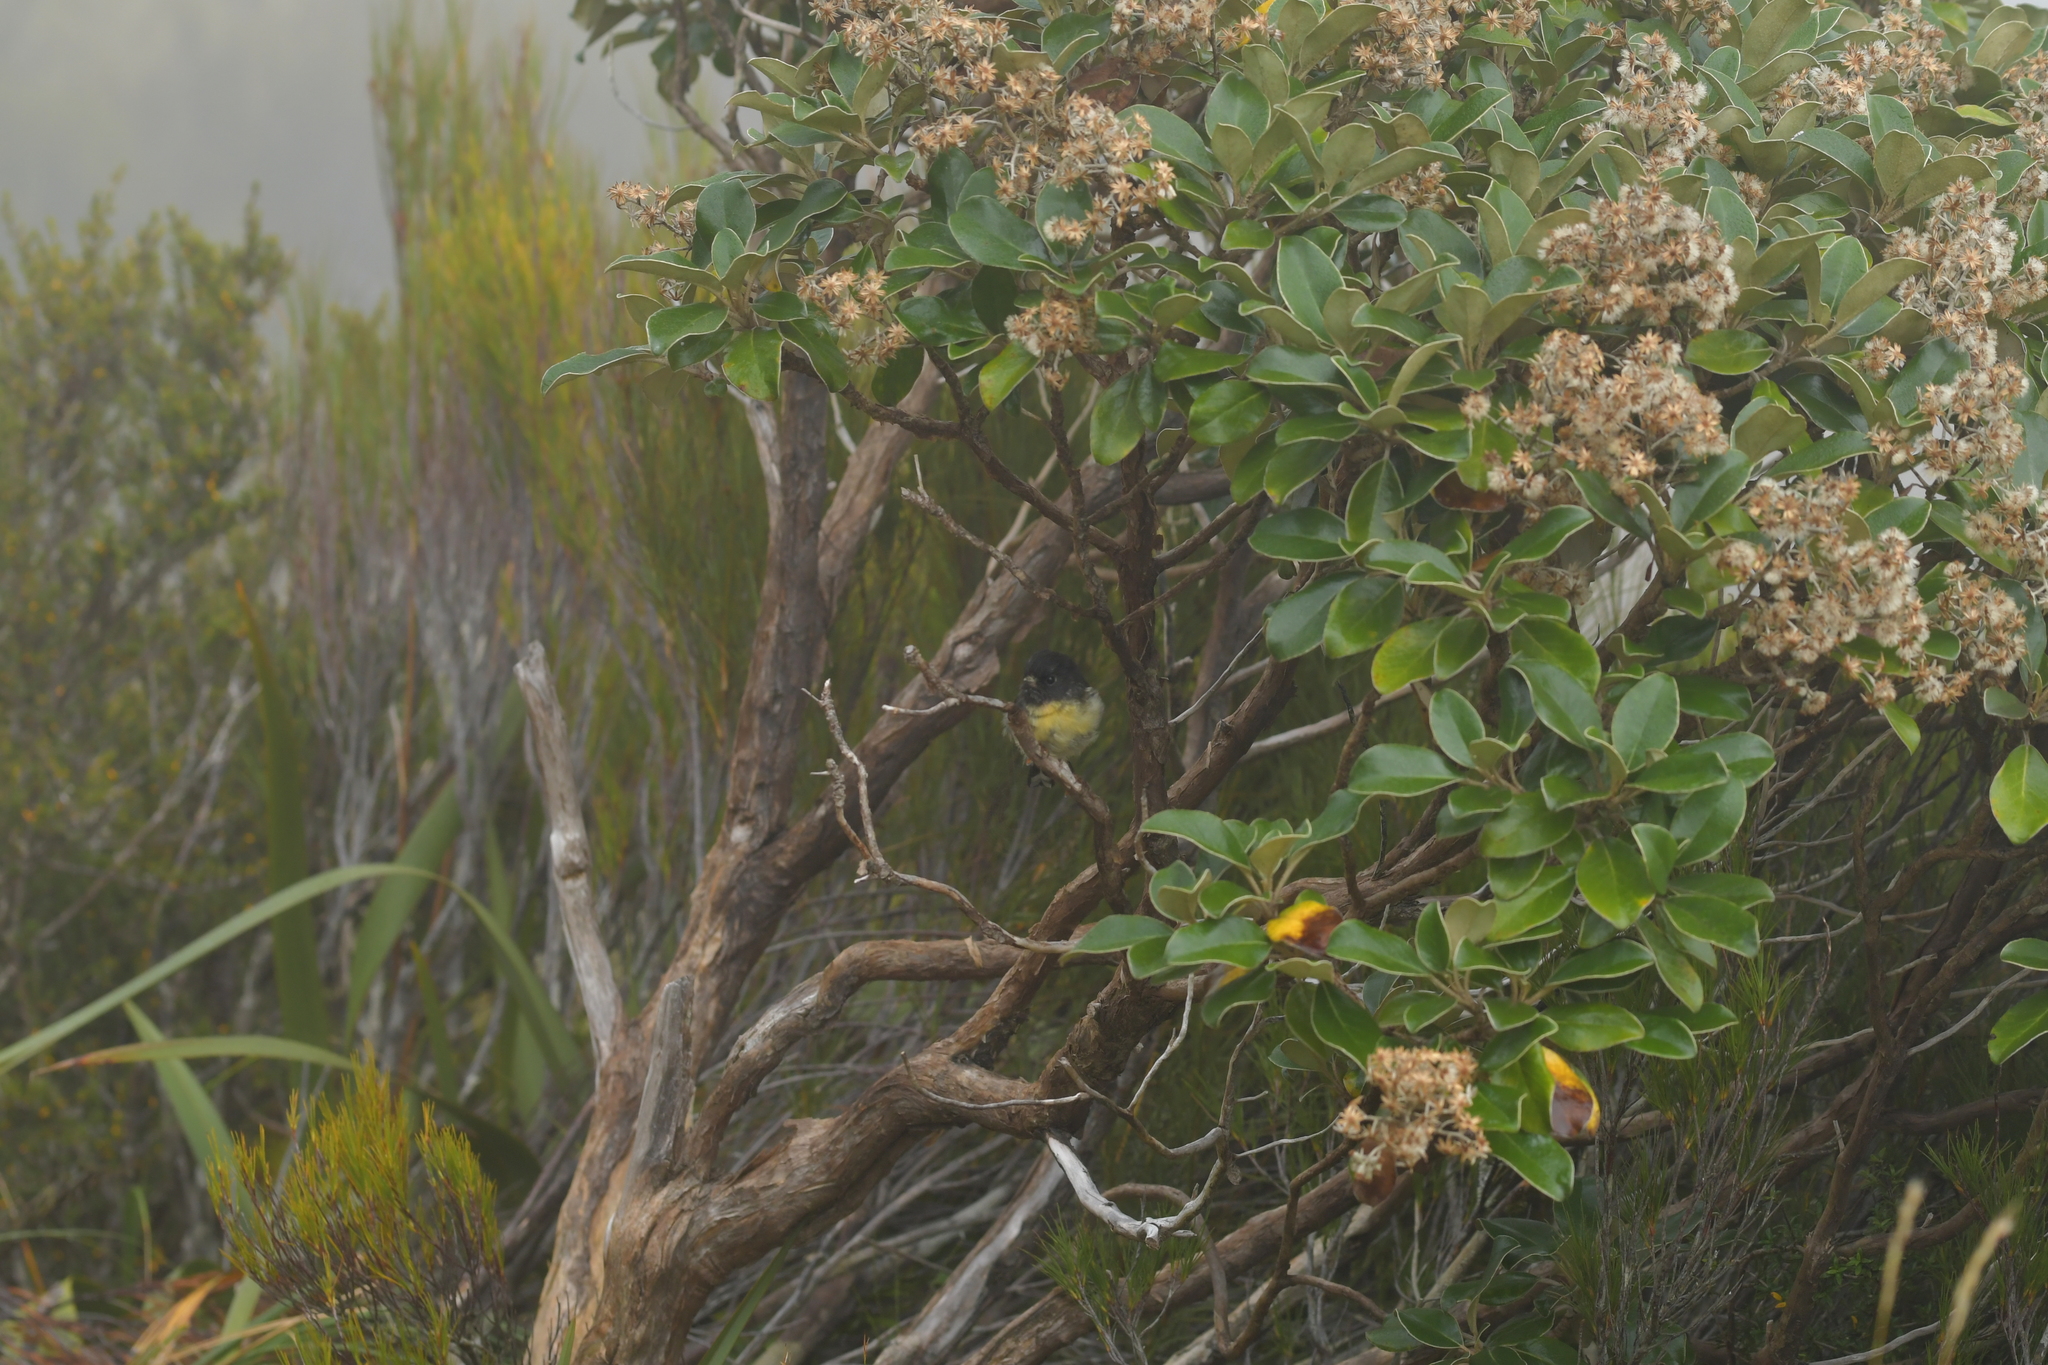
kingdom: Animalia
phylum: Chordata
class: Aves
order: Passeriformes
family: Petroicidae
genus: Petroica
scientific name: Petroica macrocephala
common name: Tomtit
